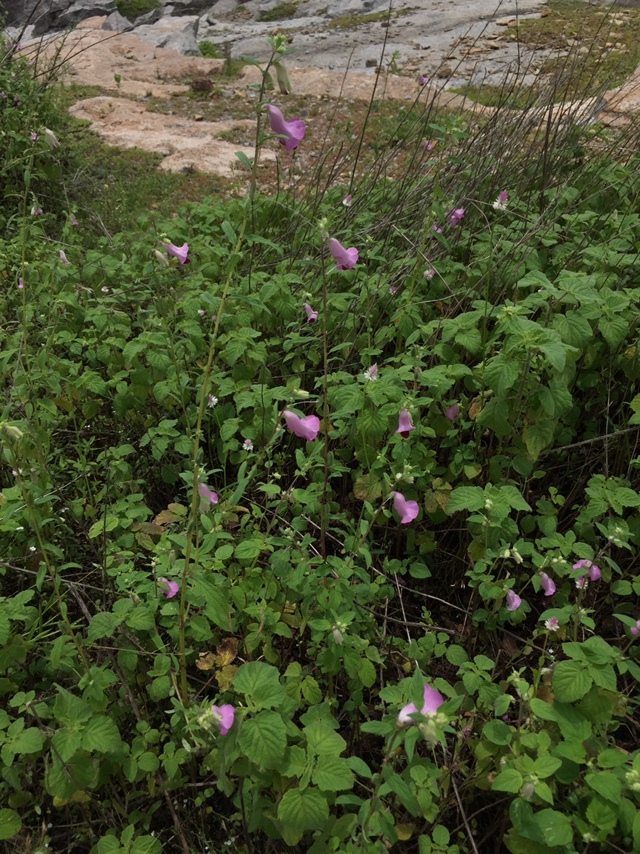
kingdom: Plantae
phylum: Tracheophyta
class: Magnoliopsida
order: Lamiales
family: Pedaliaceae
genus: Sesamum
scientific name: Sesamum indicum
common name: Sesame
